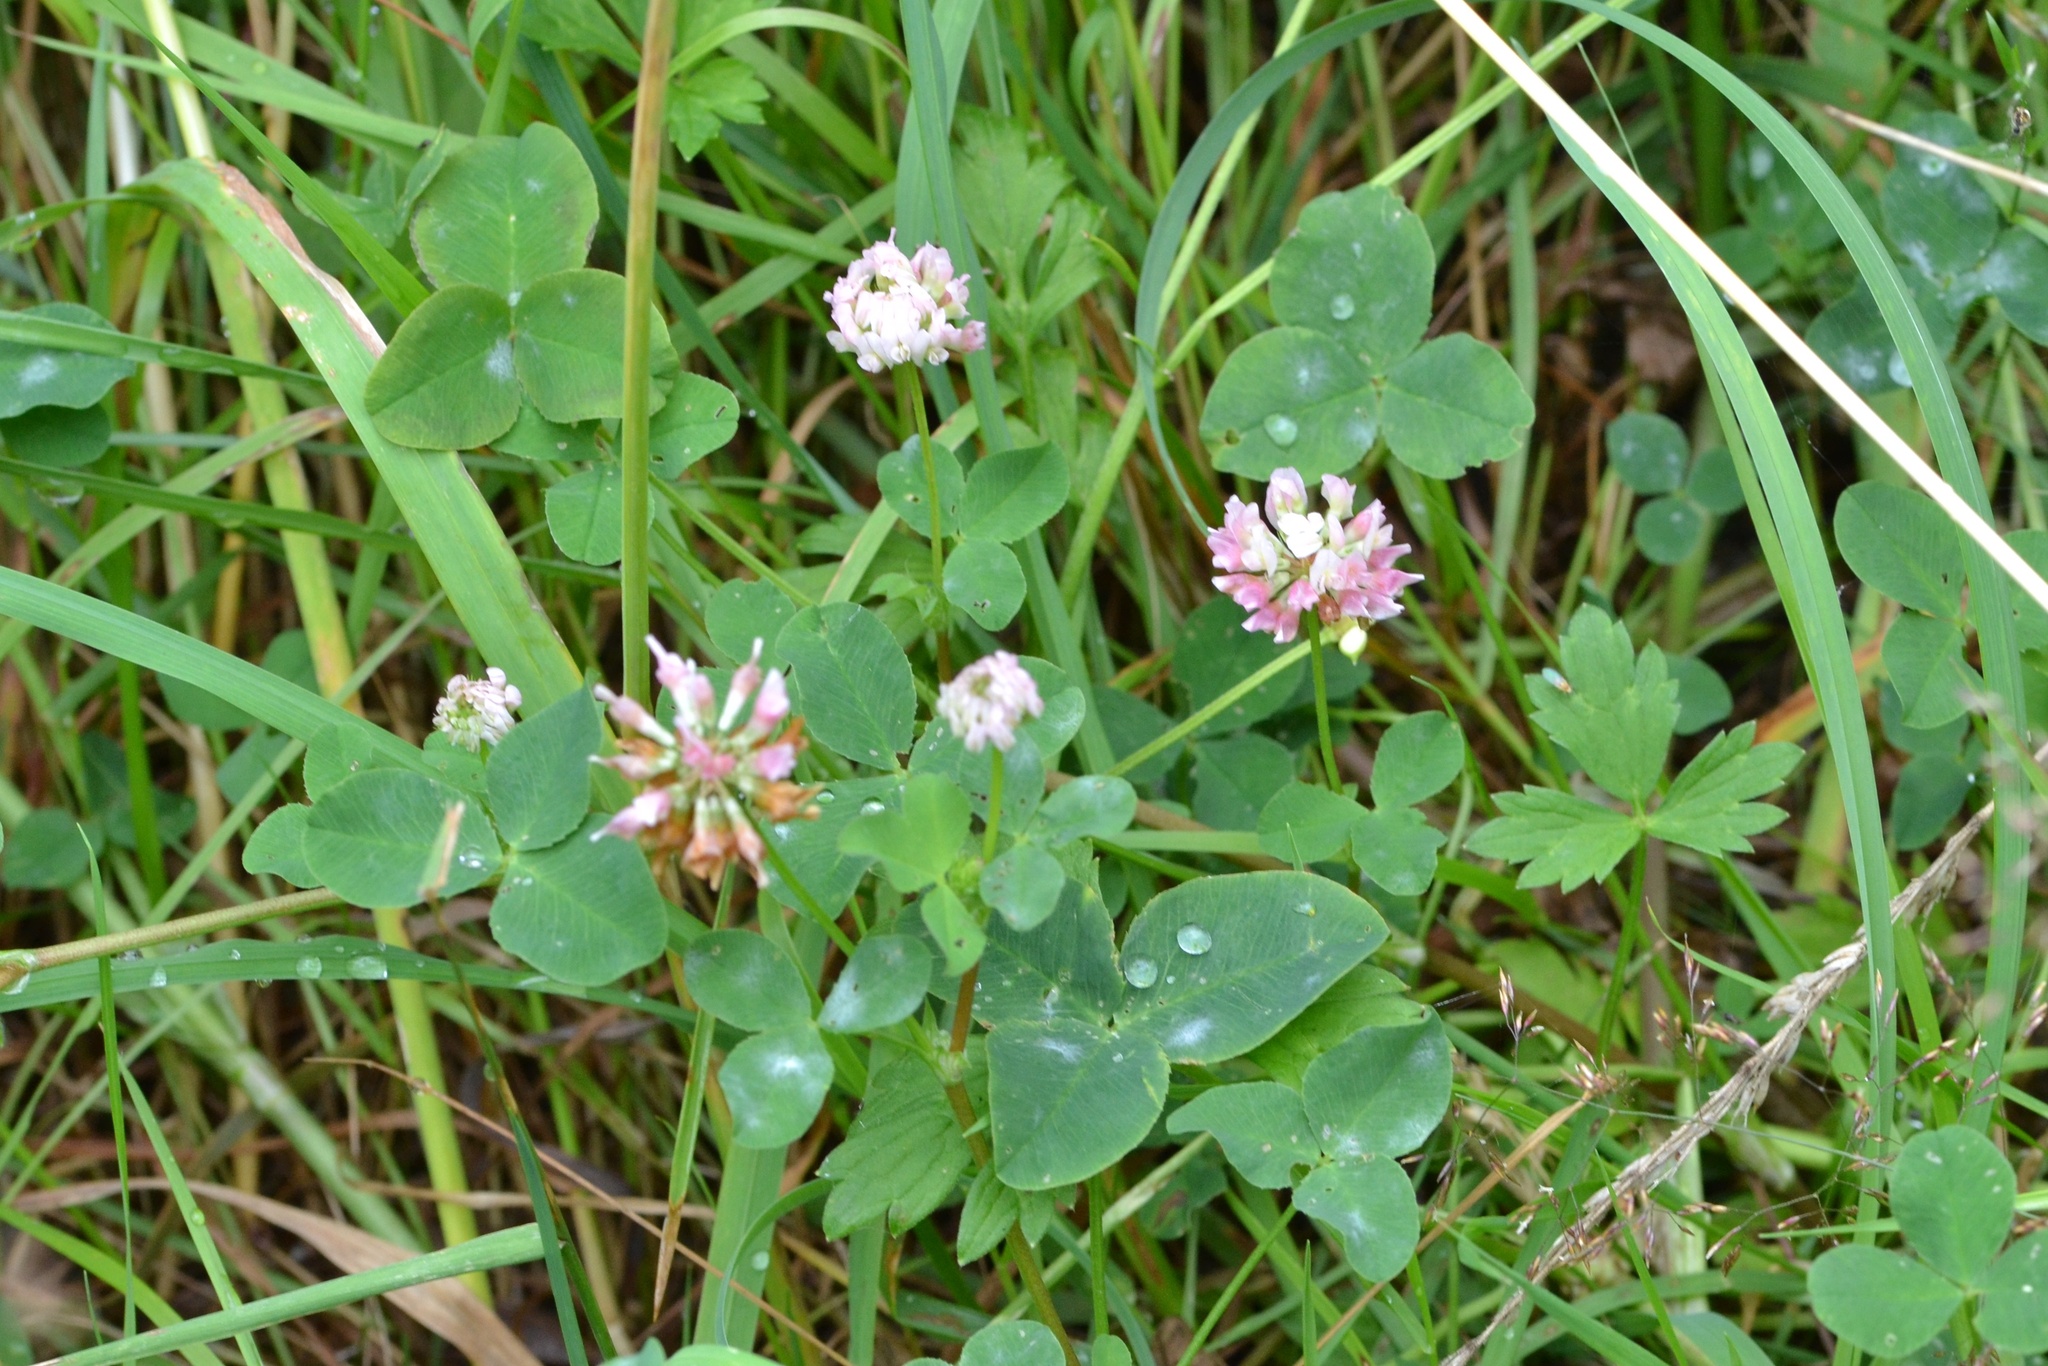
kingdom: Plantae
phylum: Tracheophyta
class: Magnoliopsida
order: Fabales
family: Fabaceae
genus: Trifolium
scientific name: Trifolium hybridum
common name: Alsike clover
